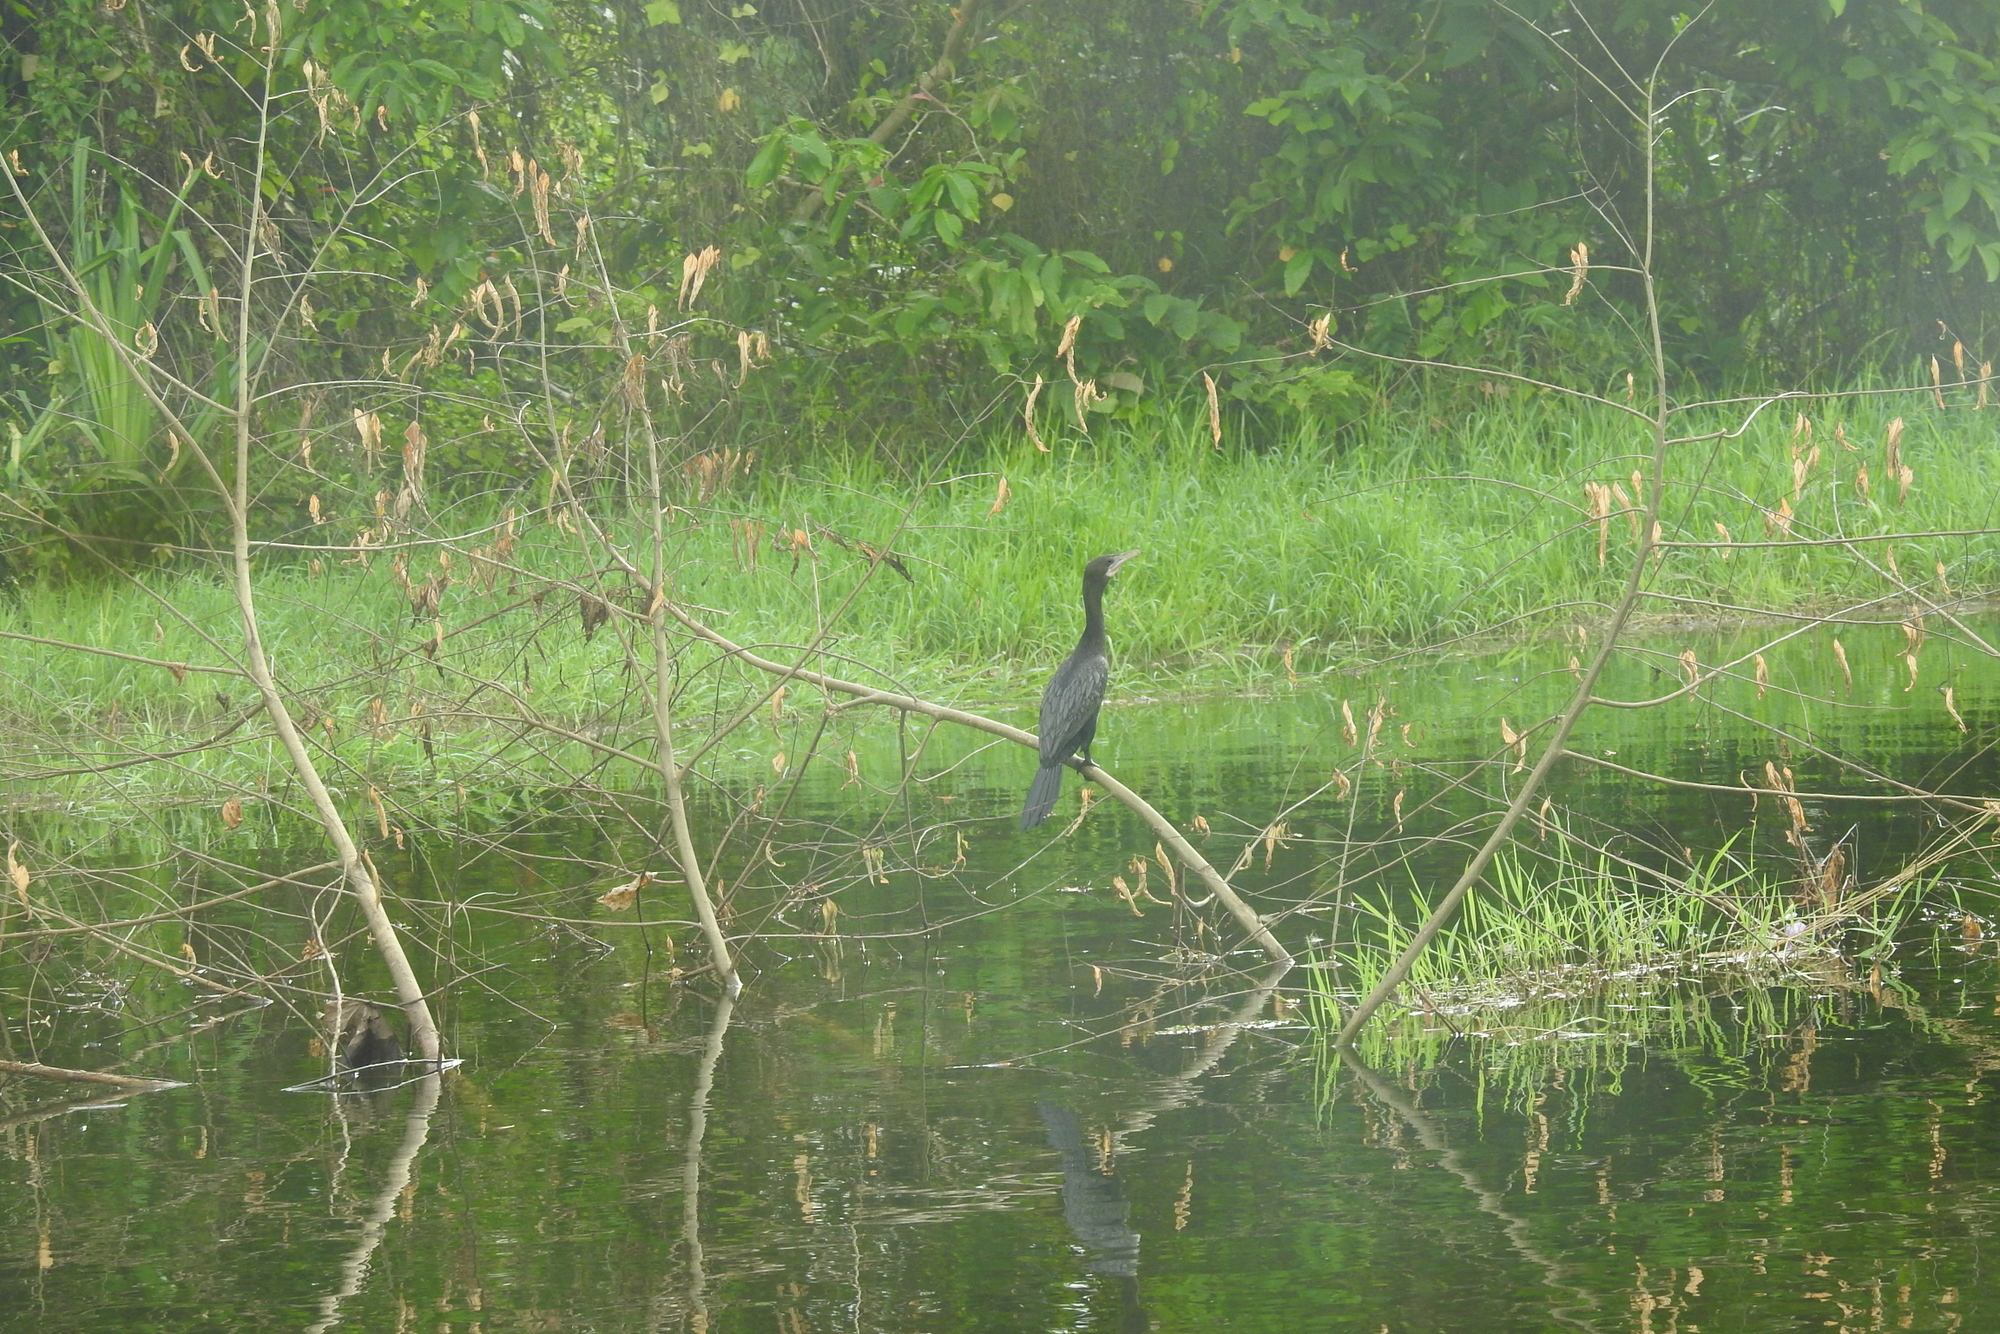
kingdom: Animalia
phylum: Chordata
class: Aves
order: Suliformes
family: Phalacrocoracidae
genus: Microcarbo
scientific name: Microcarbo niger
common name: Little cormorant
